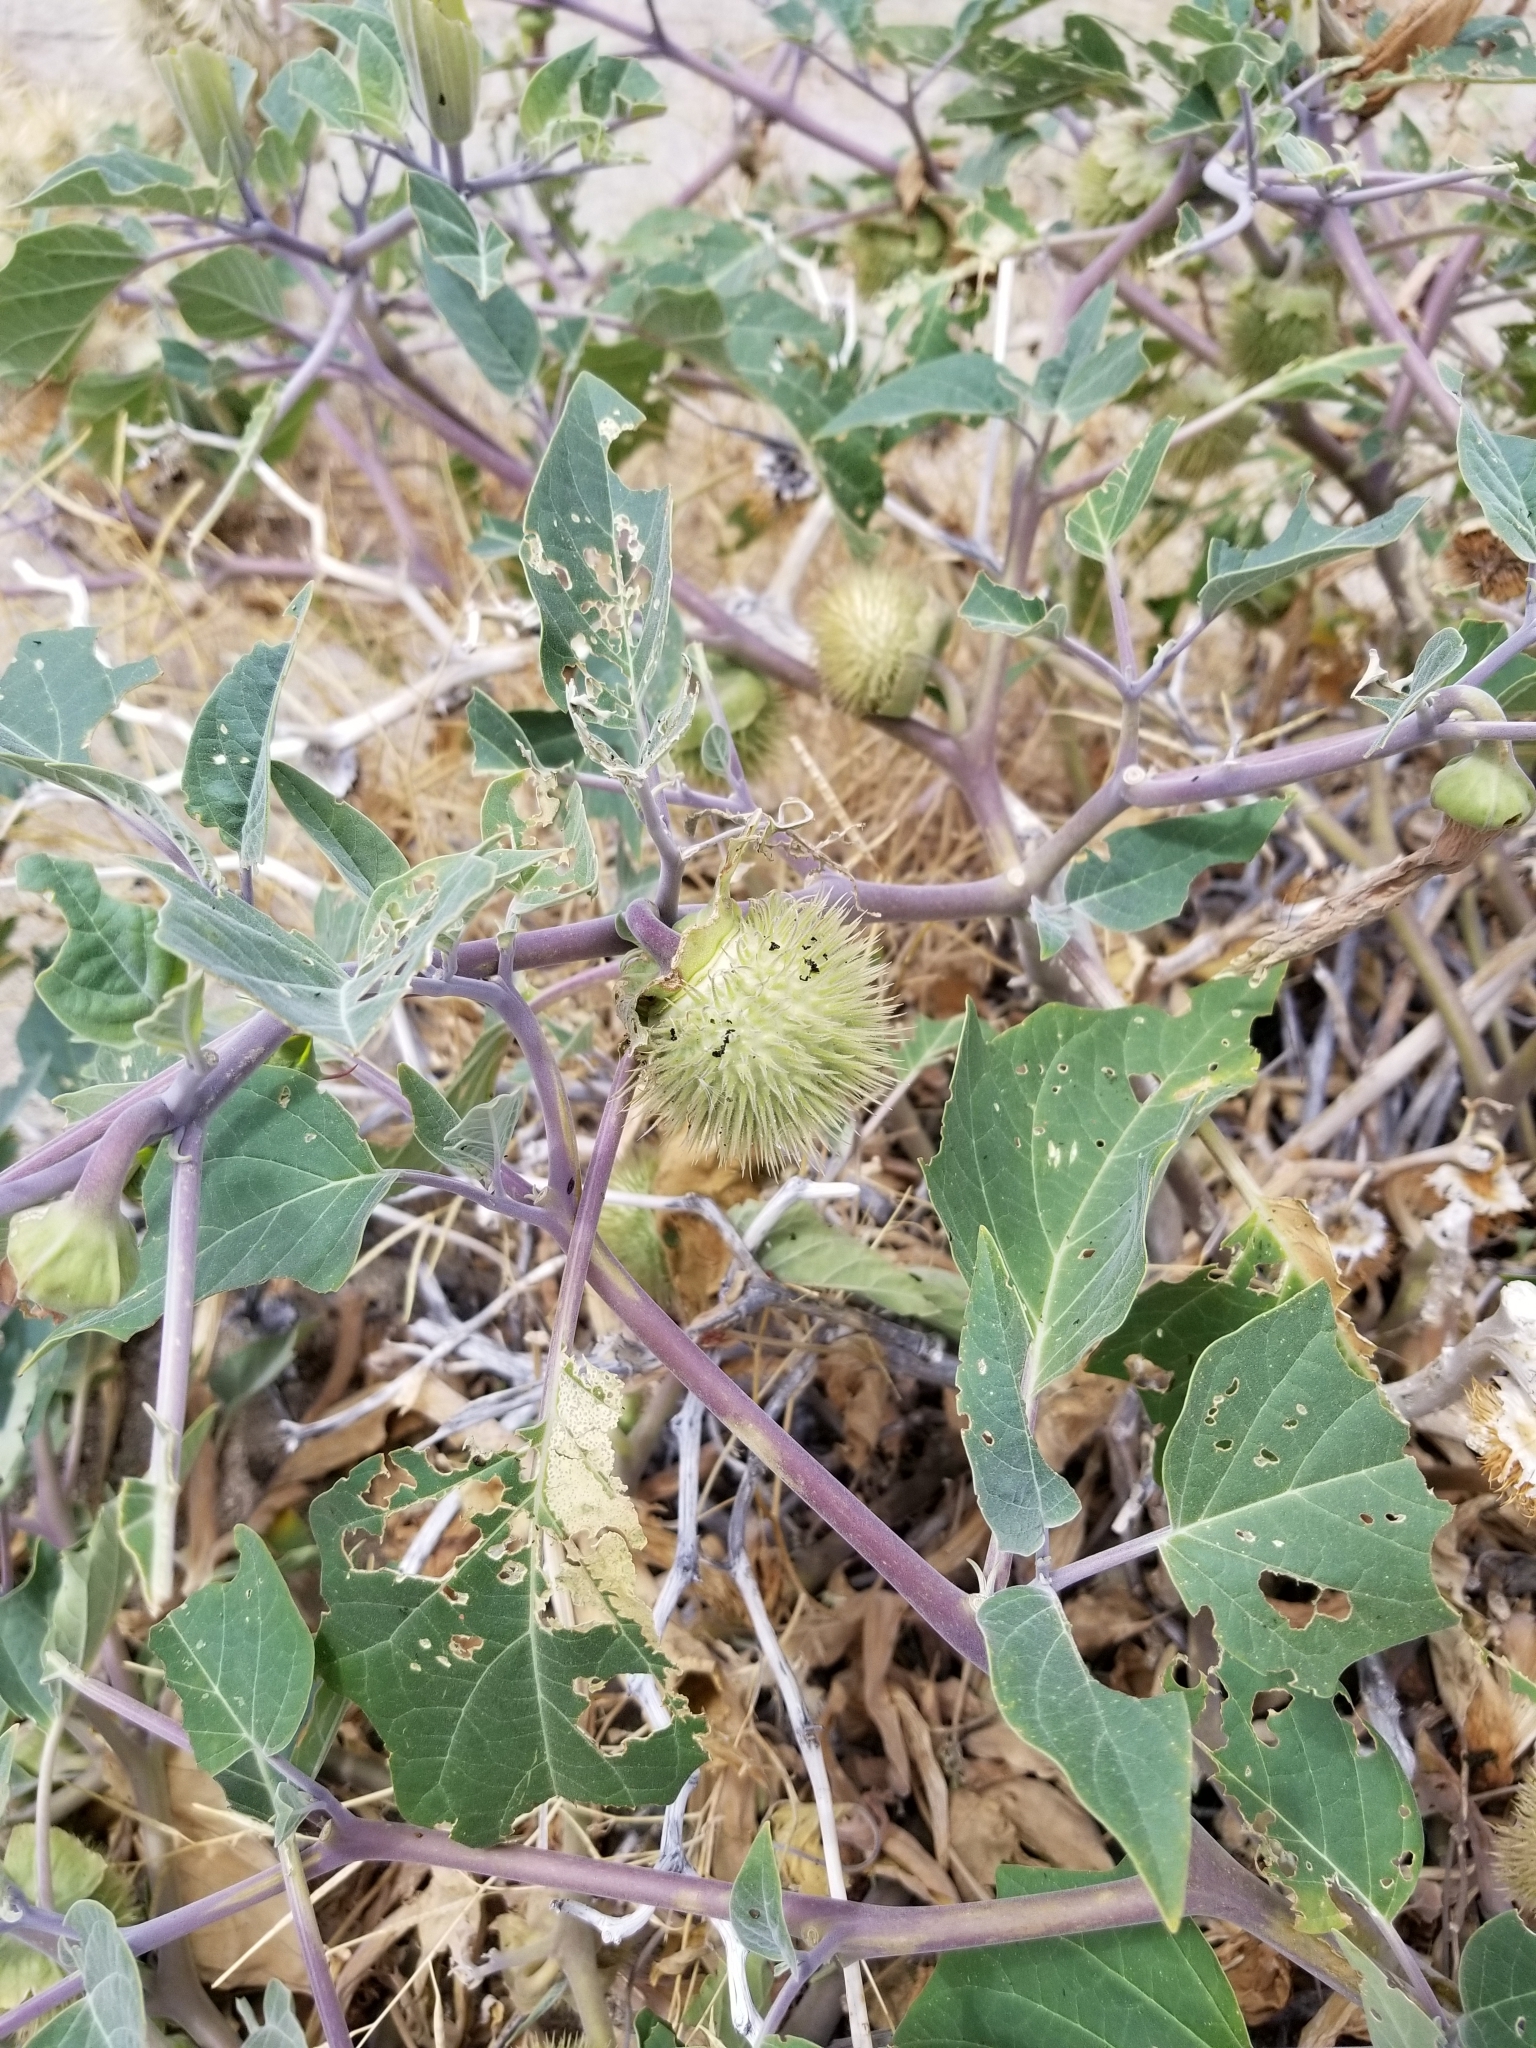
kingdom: Plantae
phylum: Tracheophyta
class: Magnoliopsida
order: Solanales
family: Solanaceae
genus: Datura
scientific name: Datura wrightii
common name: Sacred thorn-apple
